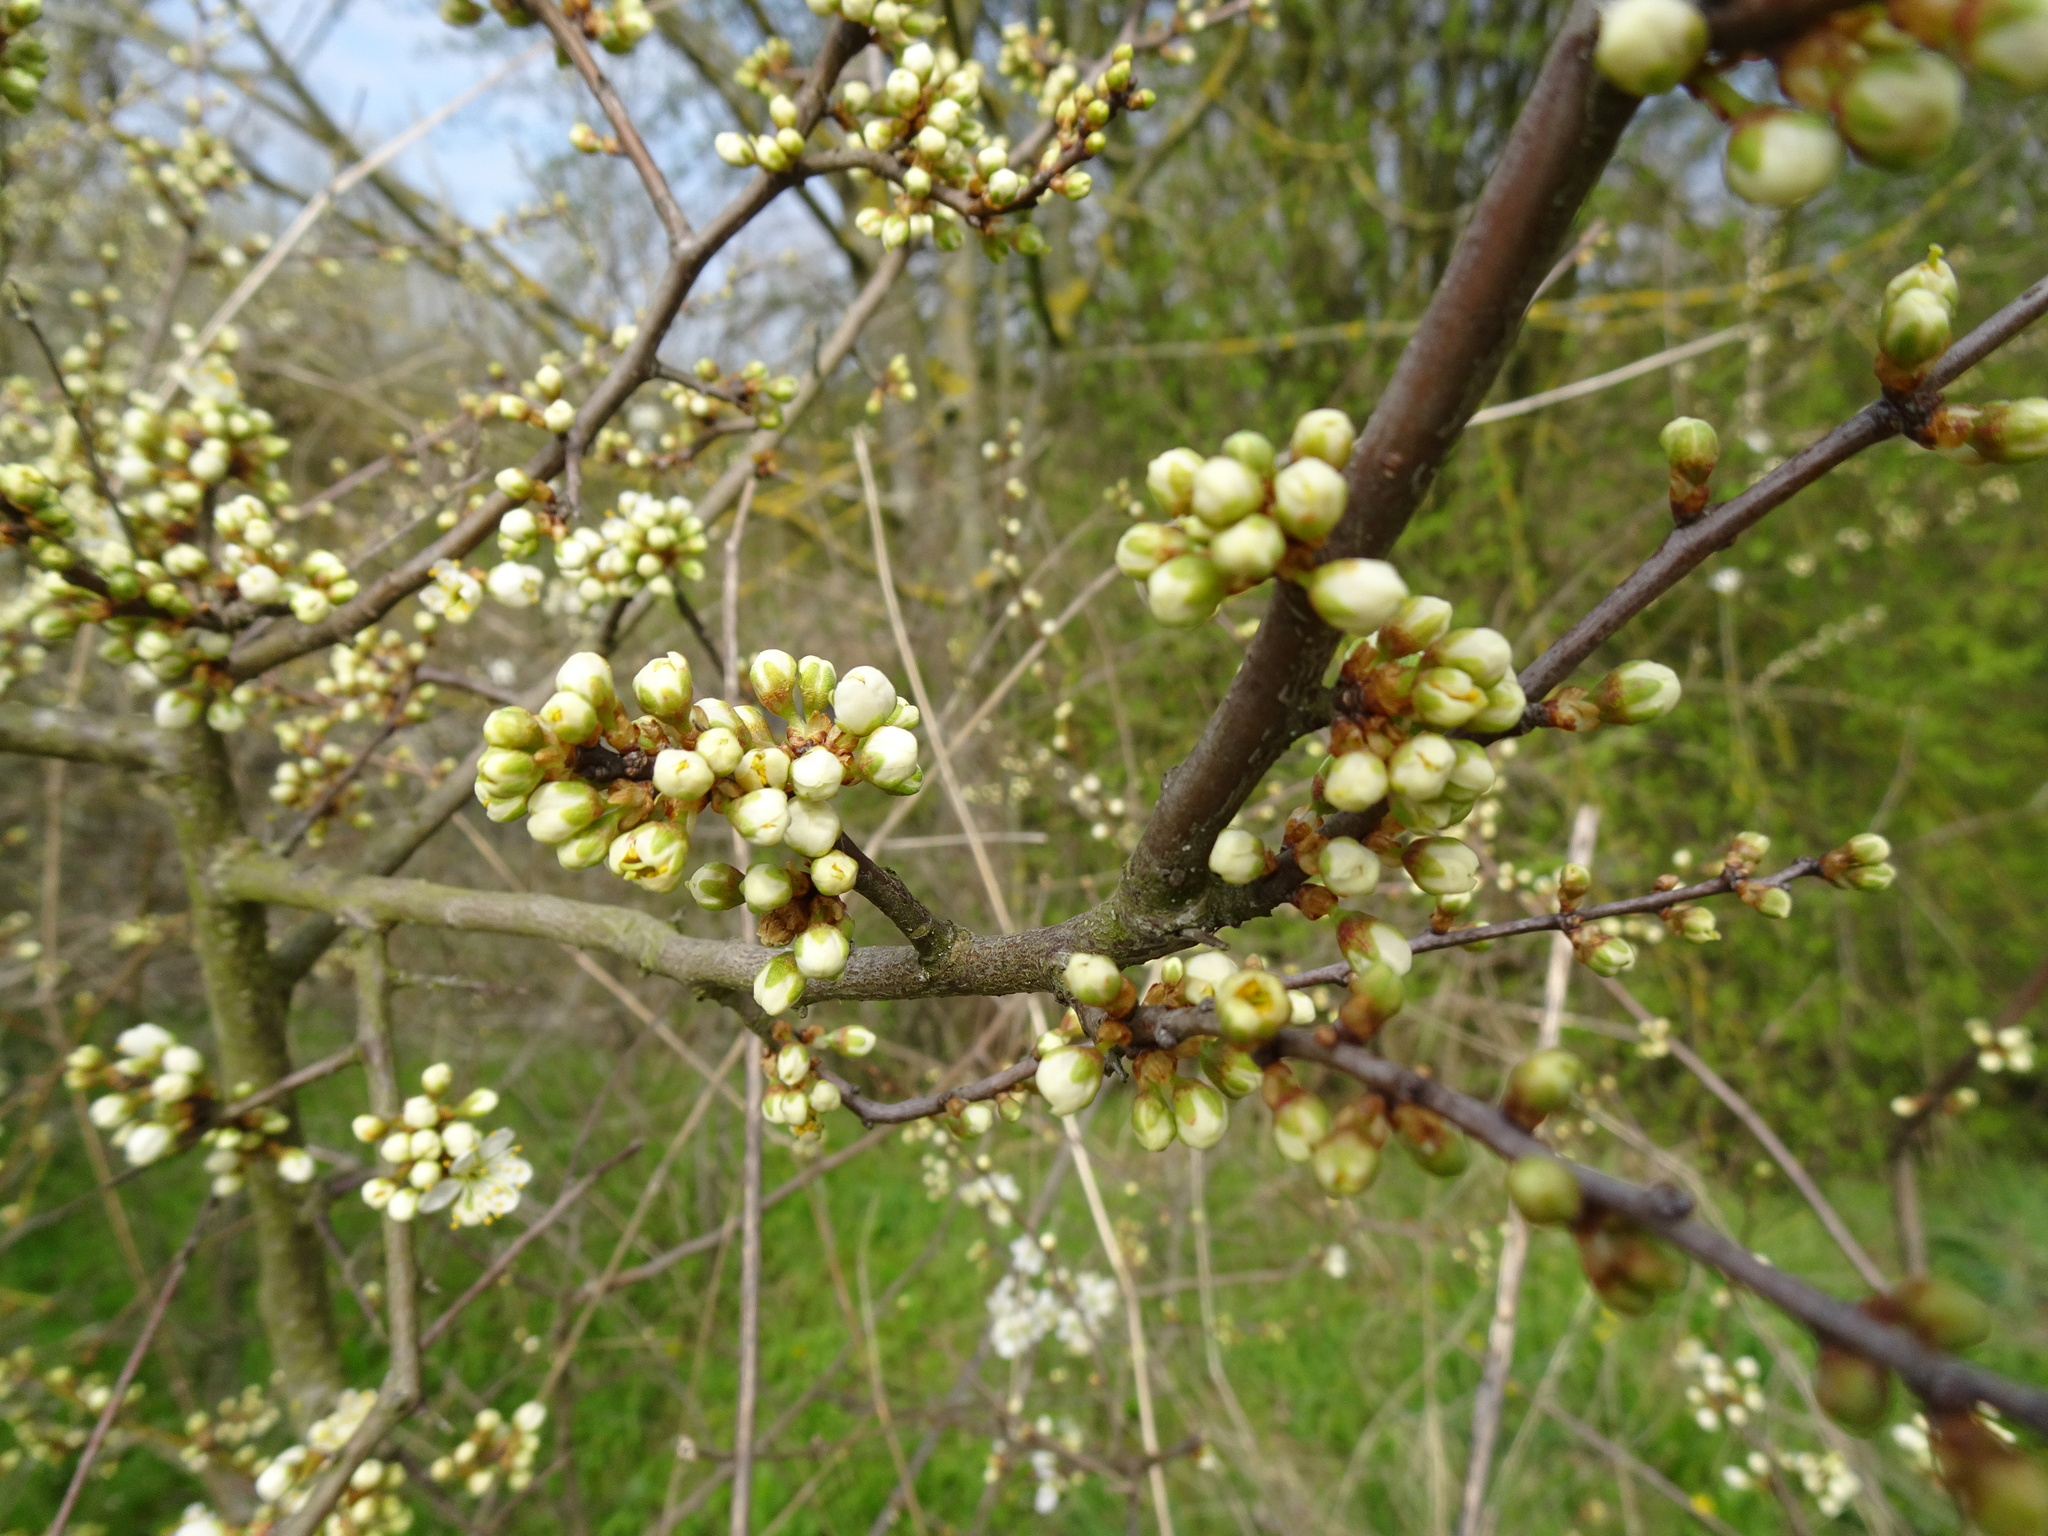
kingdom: Plantae
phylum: Tracheophyta
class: Magnoliopsida
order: Rosales
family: Rosaceae
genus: Prunus
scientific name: Prunus spinosa
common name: Blackthorn
